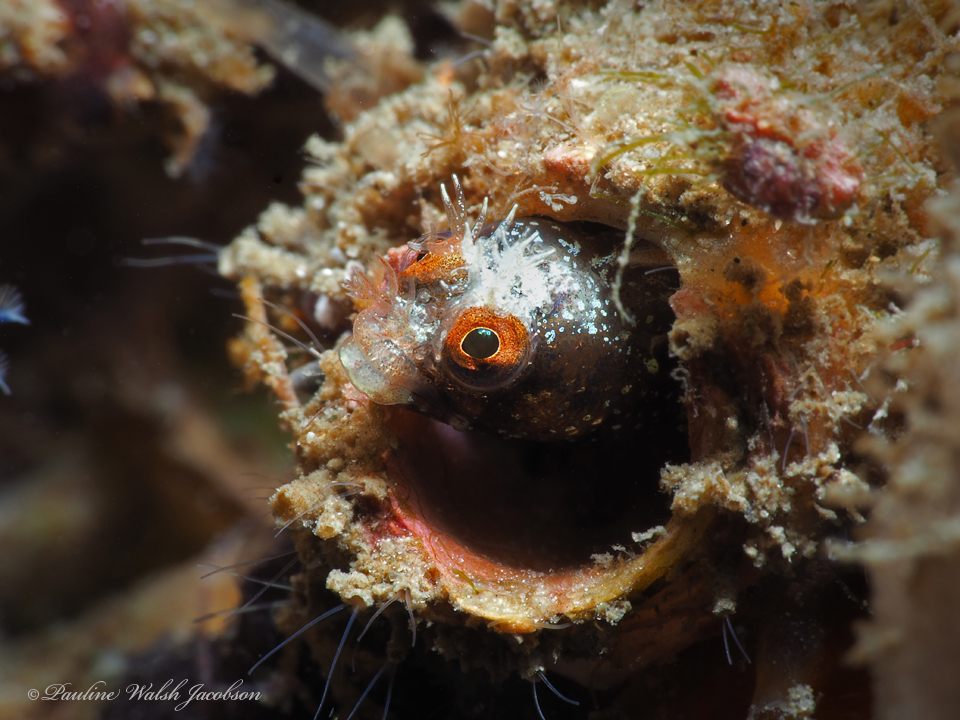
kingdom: Animalia
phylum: Chordata
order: Perciformes
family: Chaenopsidae
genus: Acanthemblemaria
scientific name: Acanthemblemaria aspera
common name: Roughhead blenny
